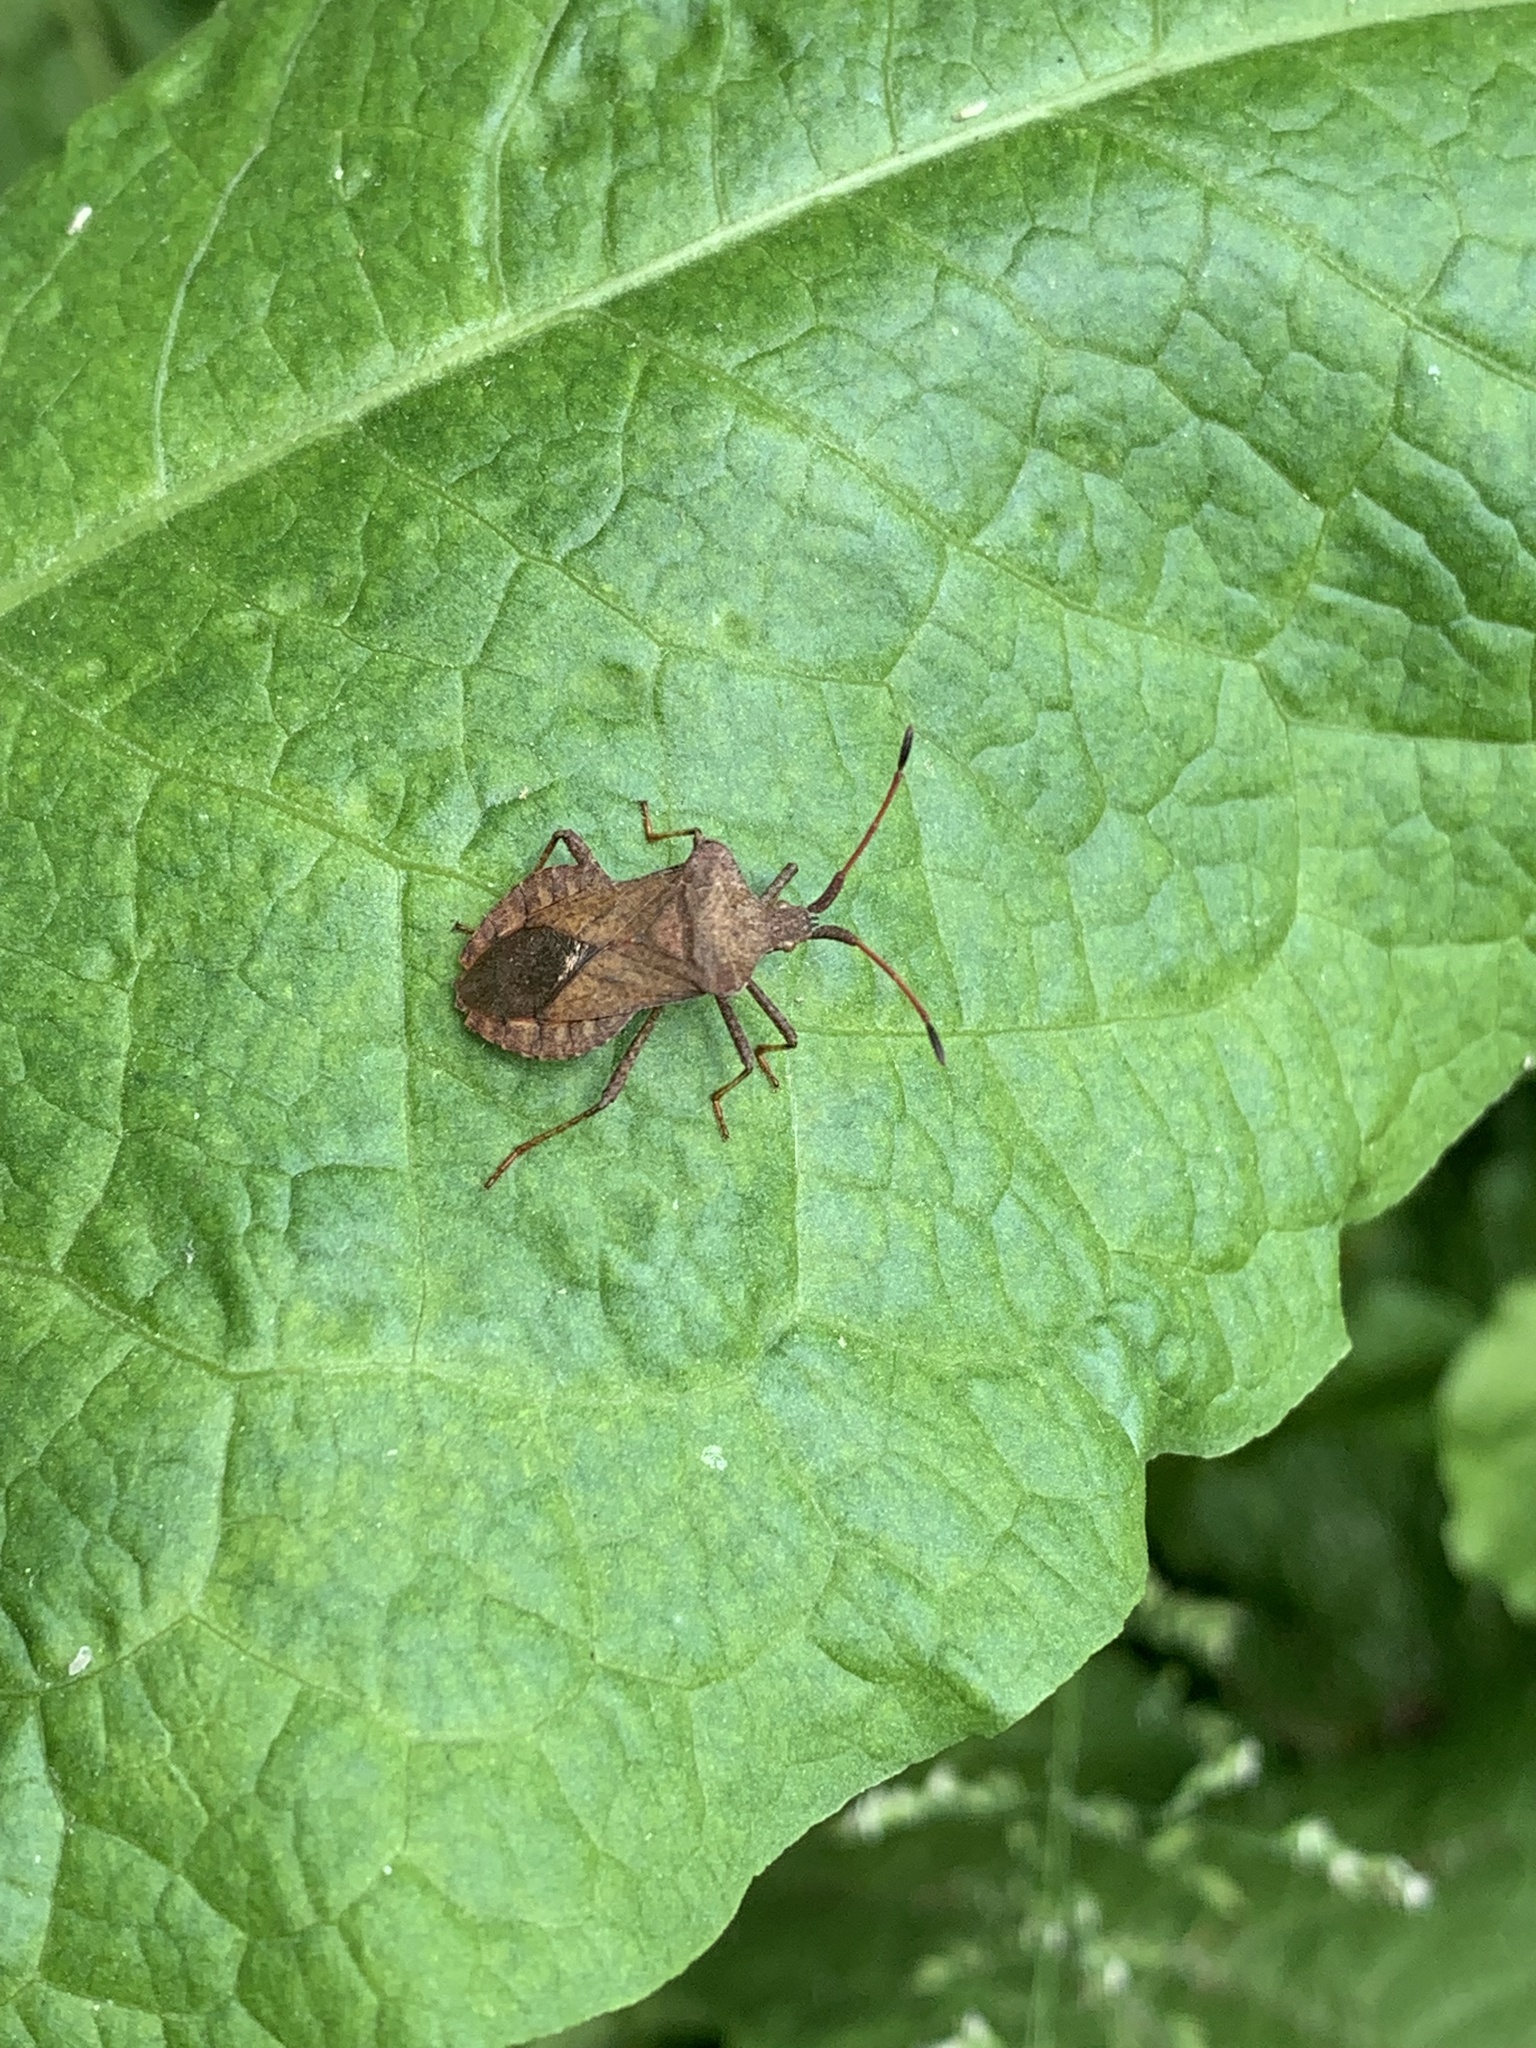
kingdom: Animalia
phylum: Arthropoda
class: Insecta
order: Hemiptera
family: Coreidae
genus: Coreus
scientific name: Coreus marginatus
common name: Dock bug
